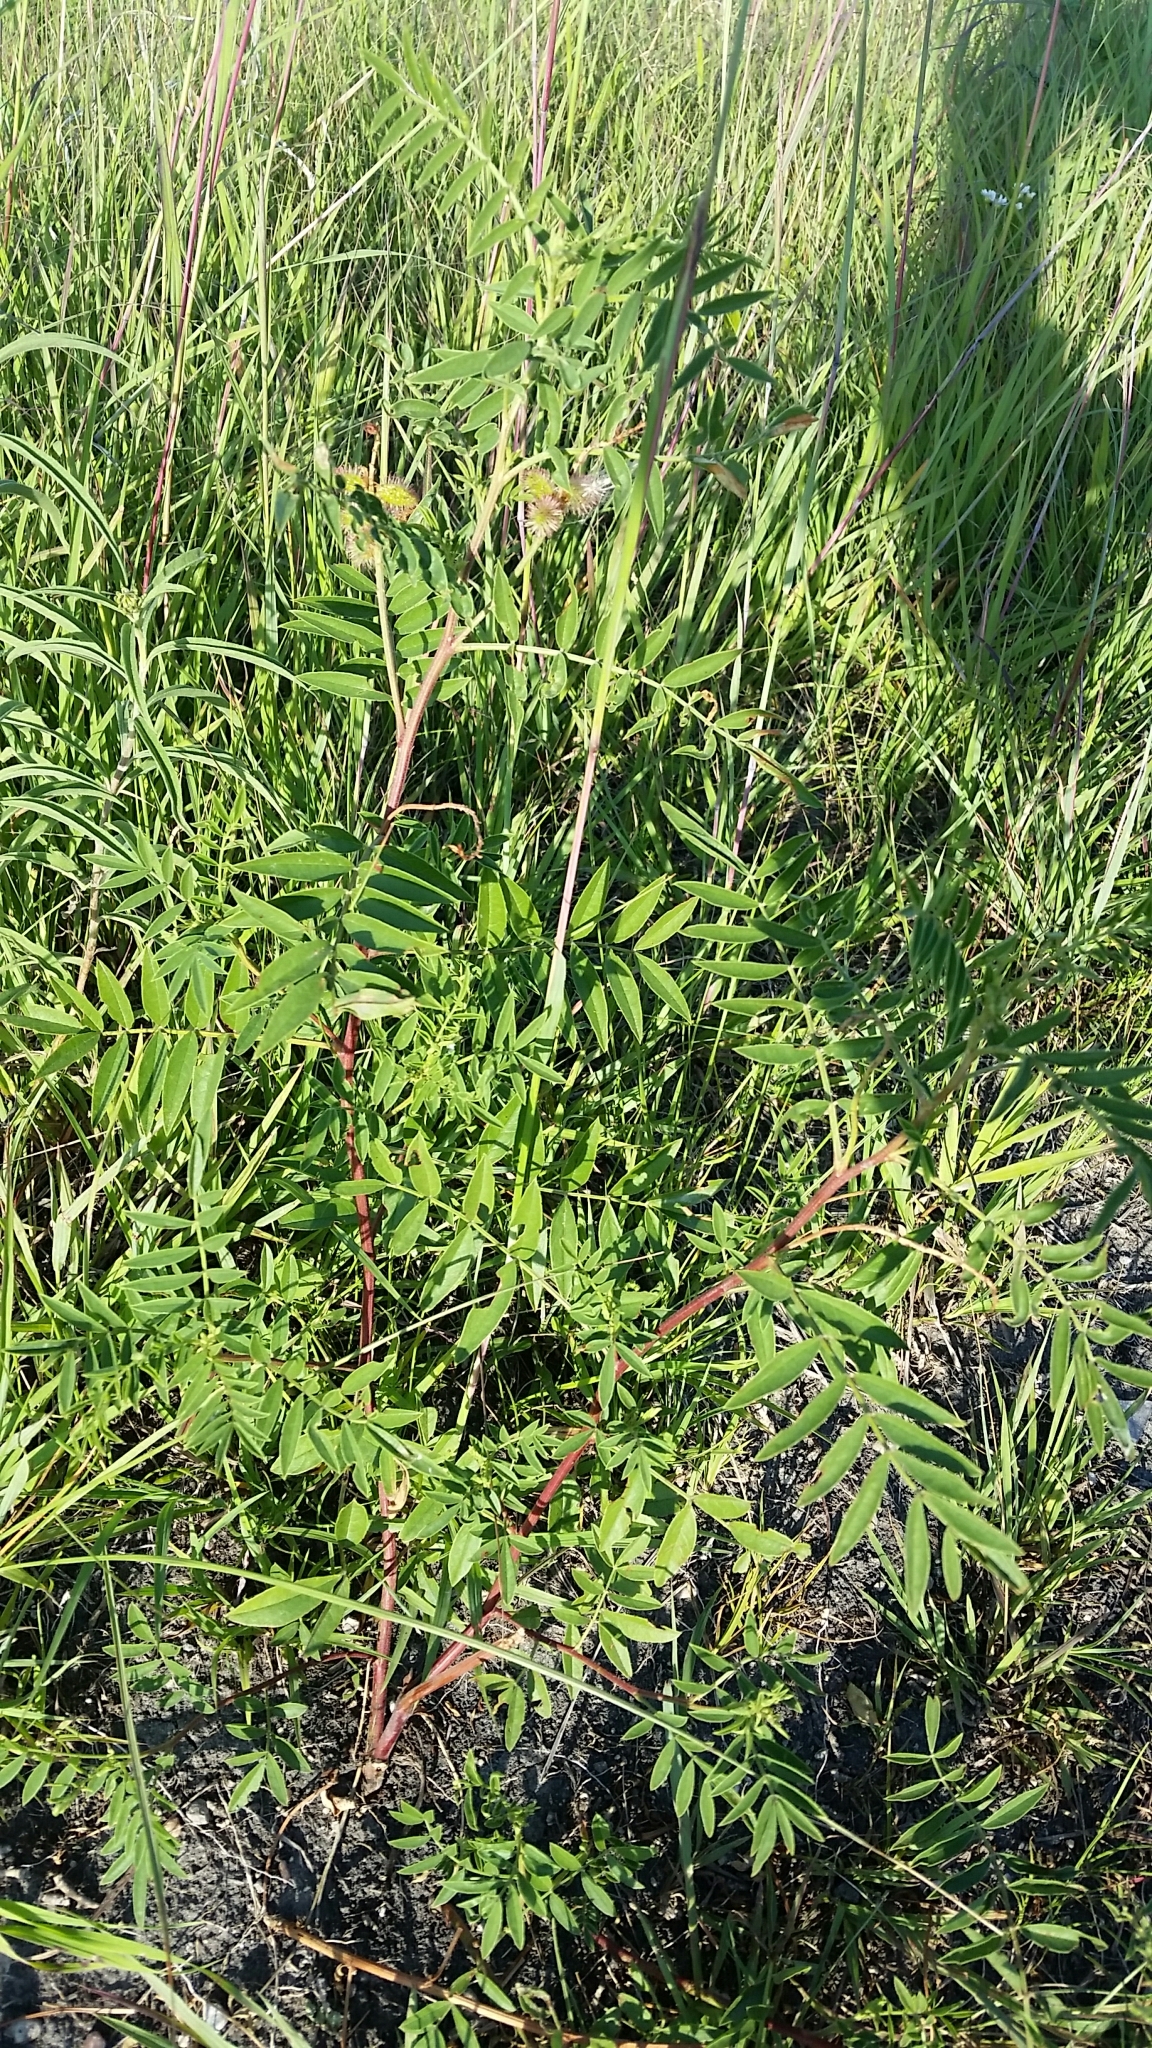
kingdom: Plantae
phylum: Tracheophyta
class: Magnoliopsida
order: Fabales
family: Fabaceae
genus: Glycyrrhiza
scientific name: Glycyrrhiza lepidota
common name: American liquorice
